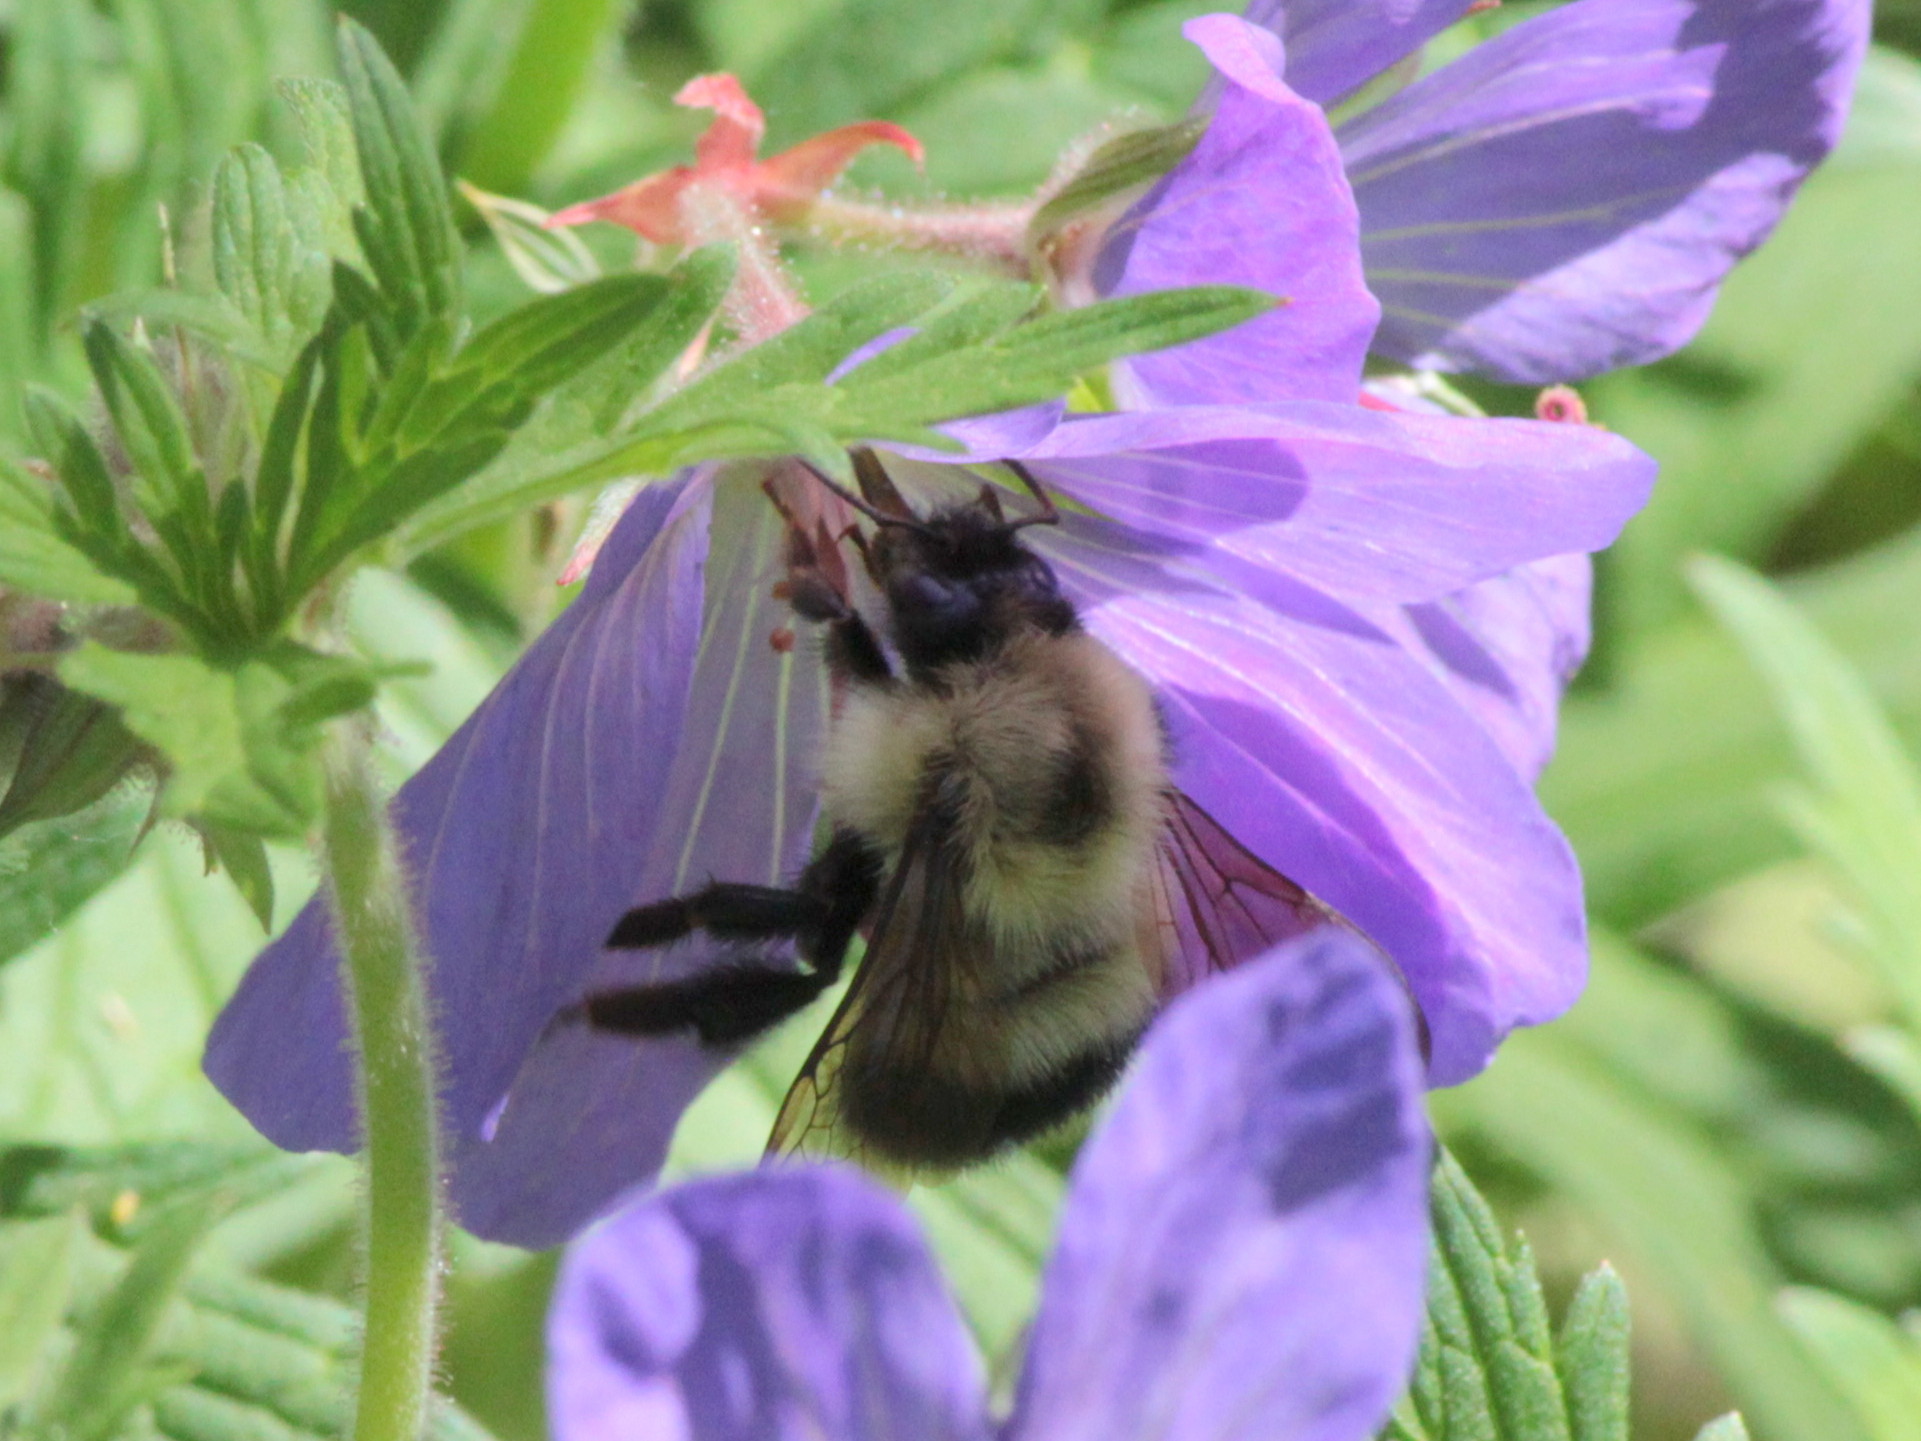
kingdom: Animalia
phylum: Arthropoda
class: Insecta
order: Hymenoptera
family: Apidae
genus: Bombus
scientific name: Bombus vagans
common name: Half-black bumble bee
